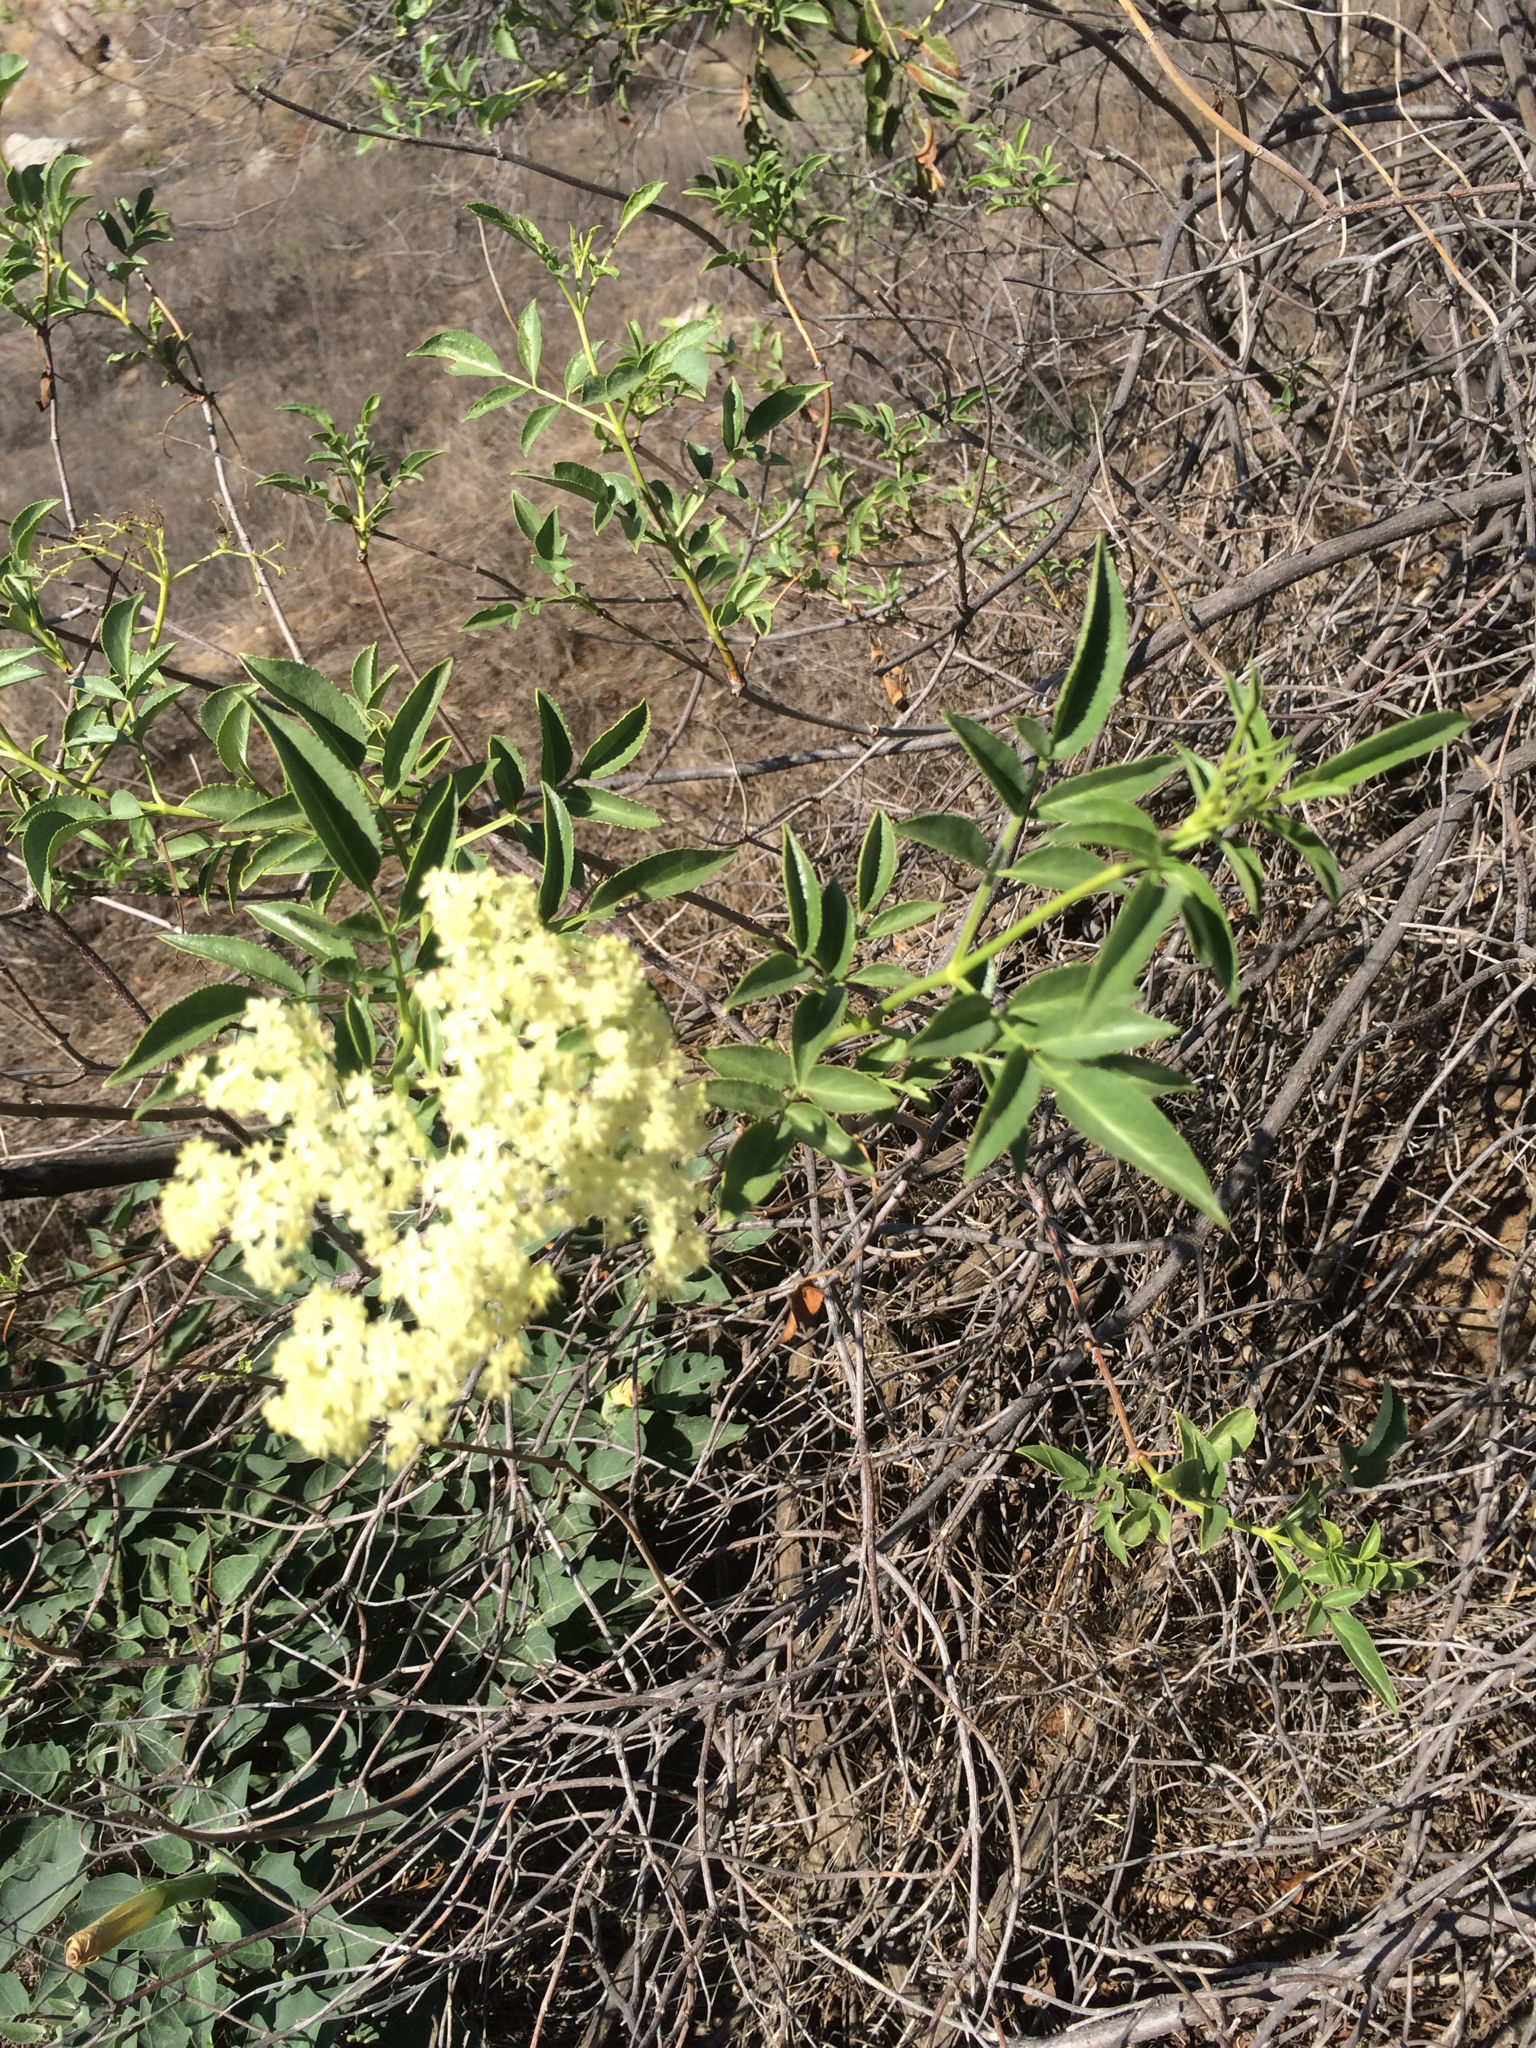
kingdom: Plantae
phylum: Tracheophyta
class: Magnoliopsida
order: Dipsacales
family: Viburnaceae
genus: Sambucus
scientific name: Sambucus cerulea
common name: Blue elder
